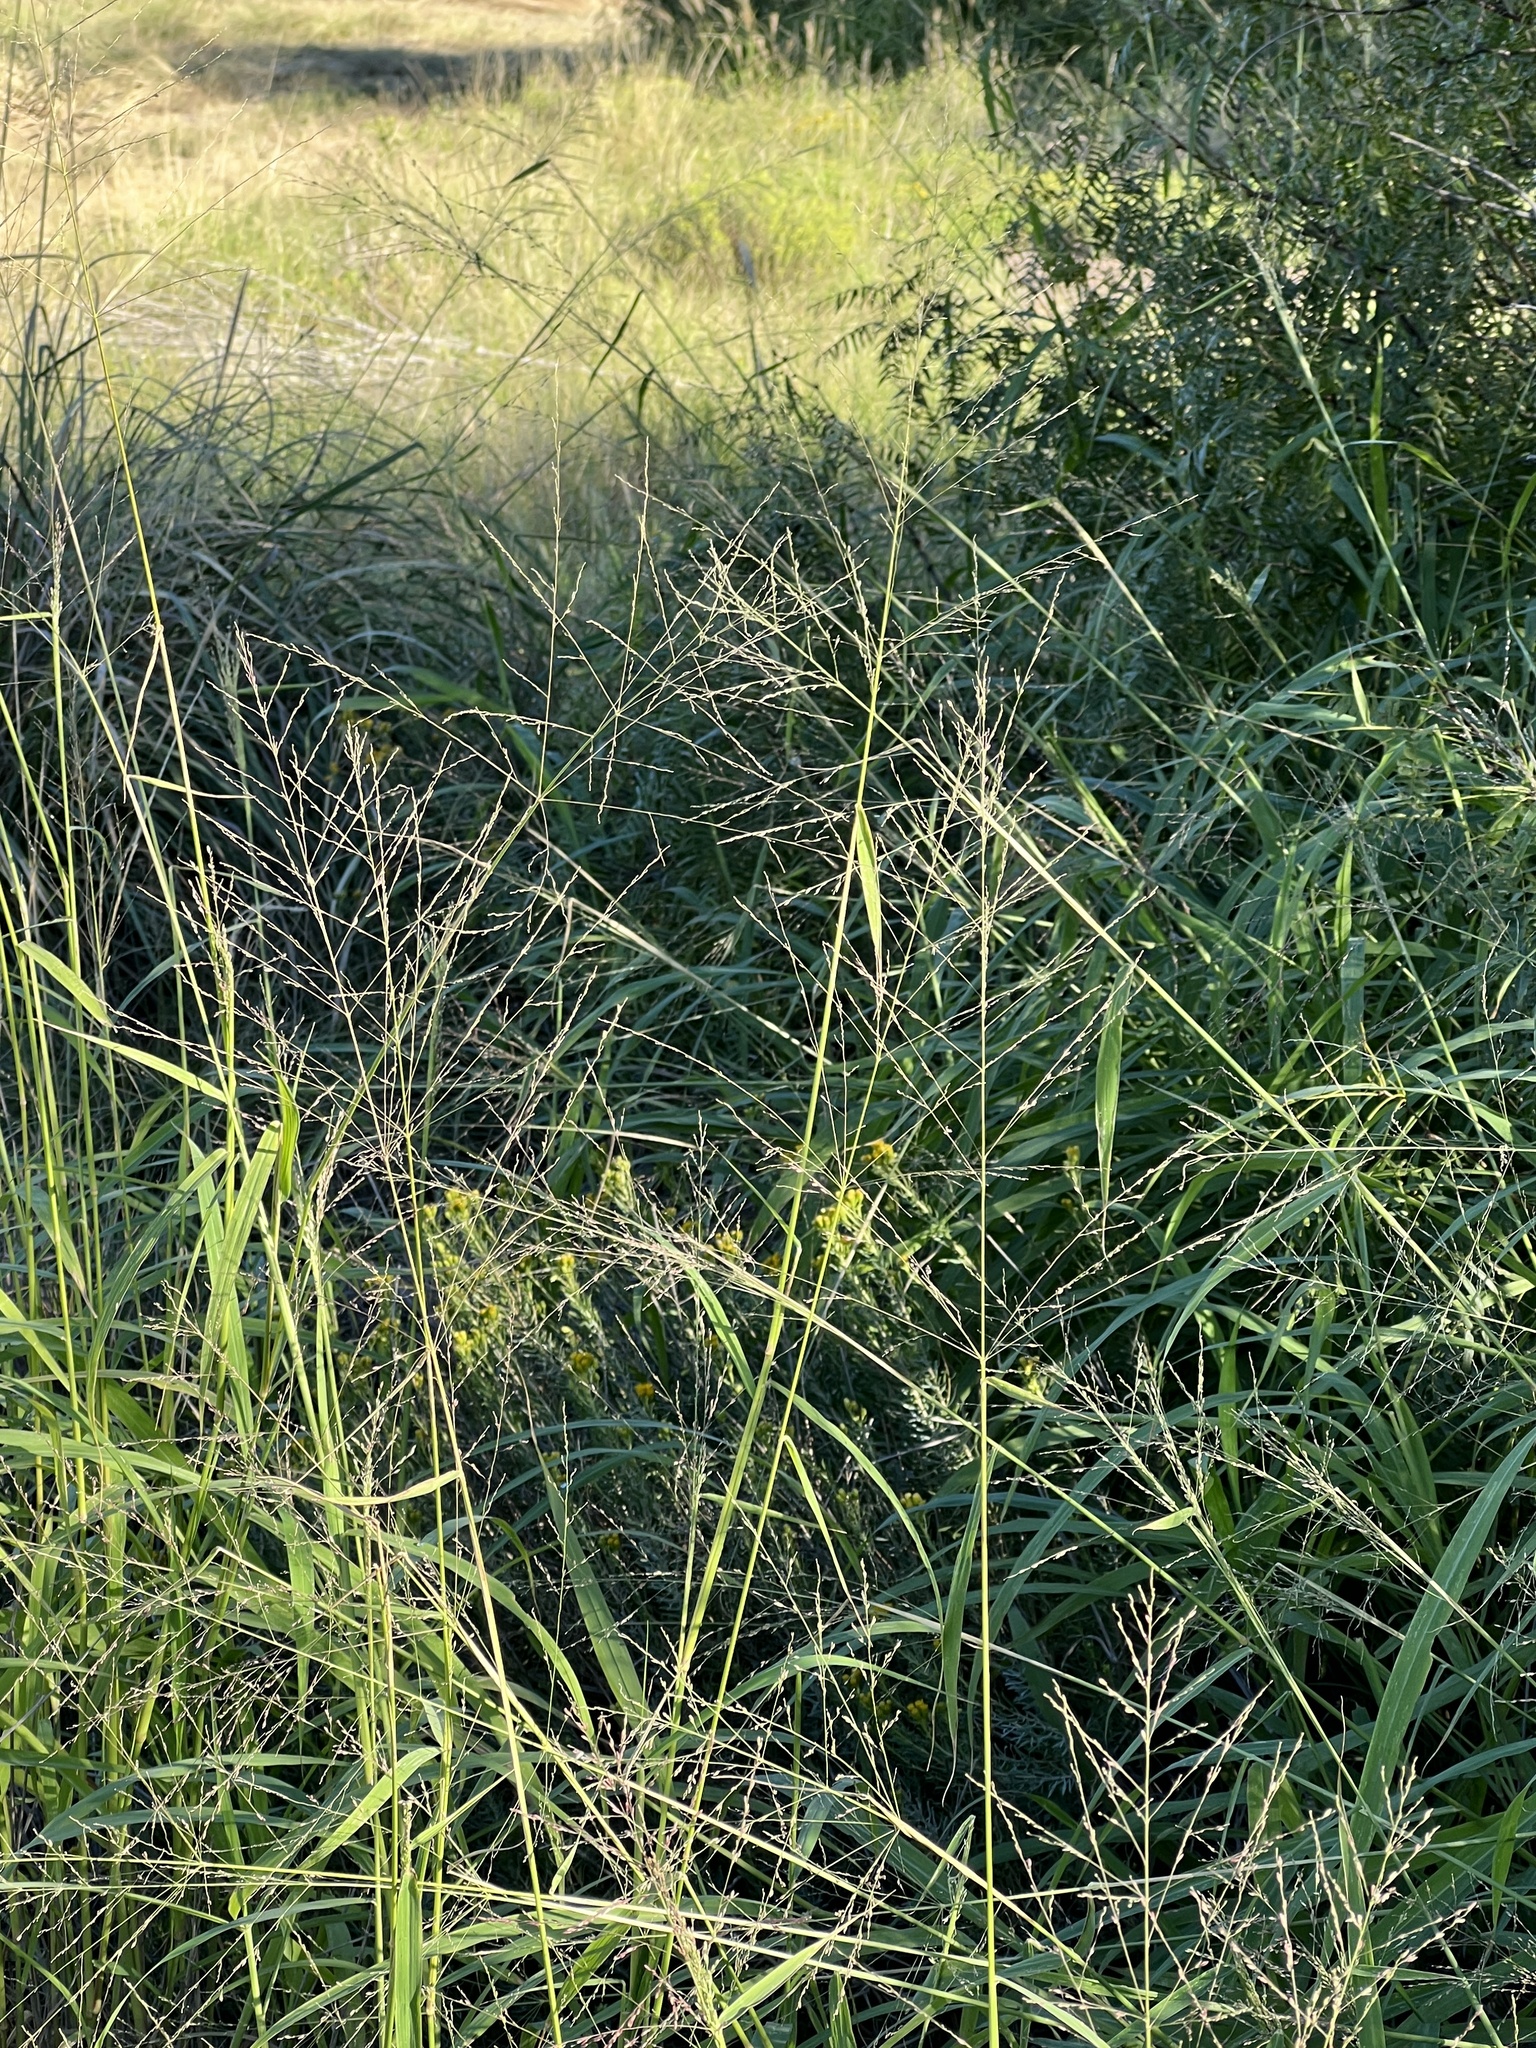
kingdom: Plantae
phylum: Tracheophyta
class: Liliopsida
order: Poales
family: Poaceae
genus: Megathyrsus
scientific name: Megathyrsus maximus
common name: Guineagrass
